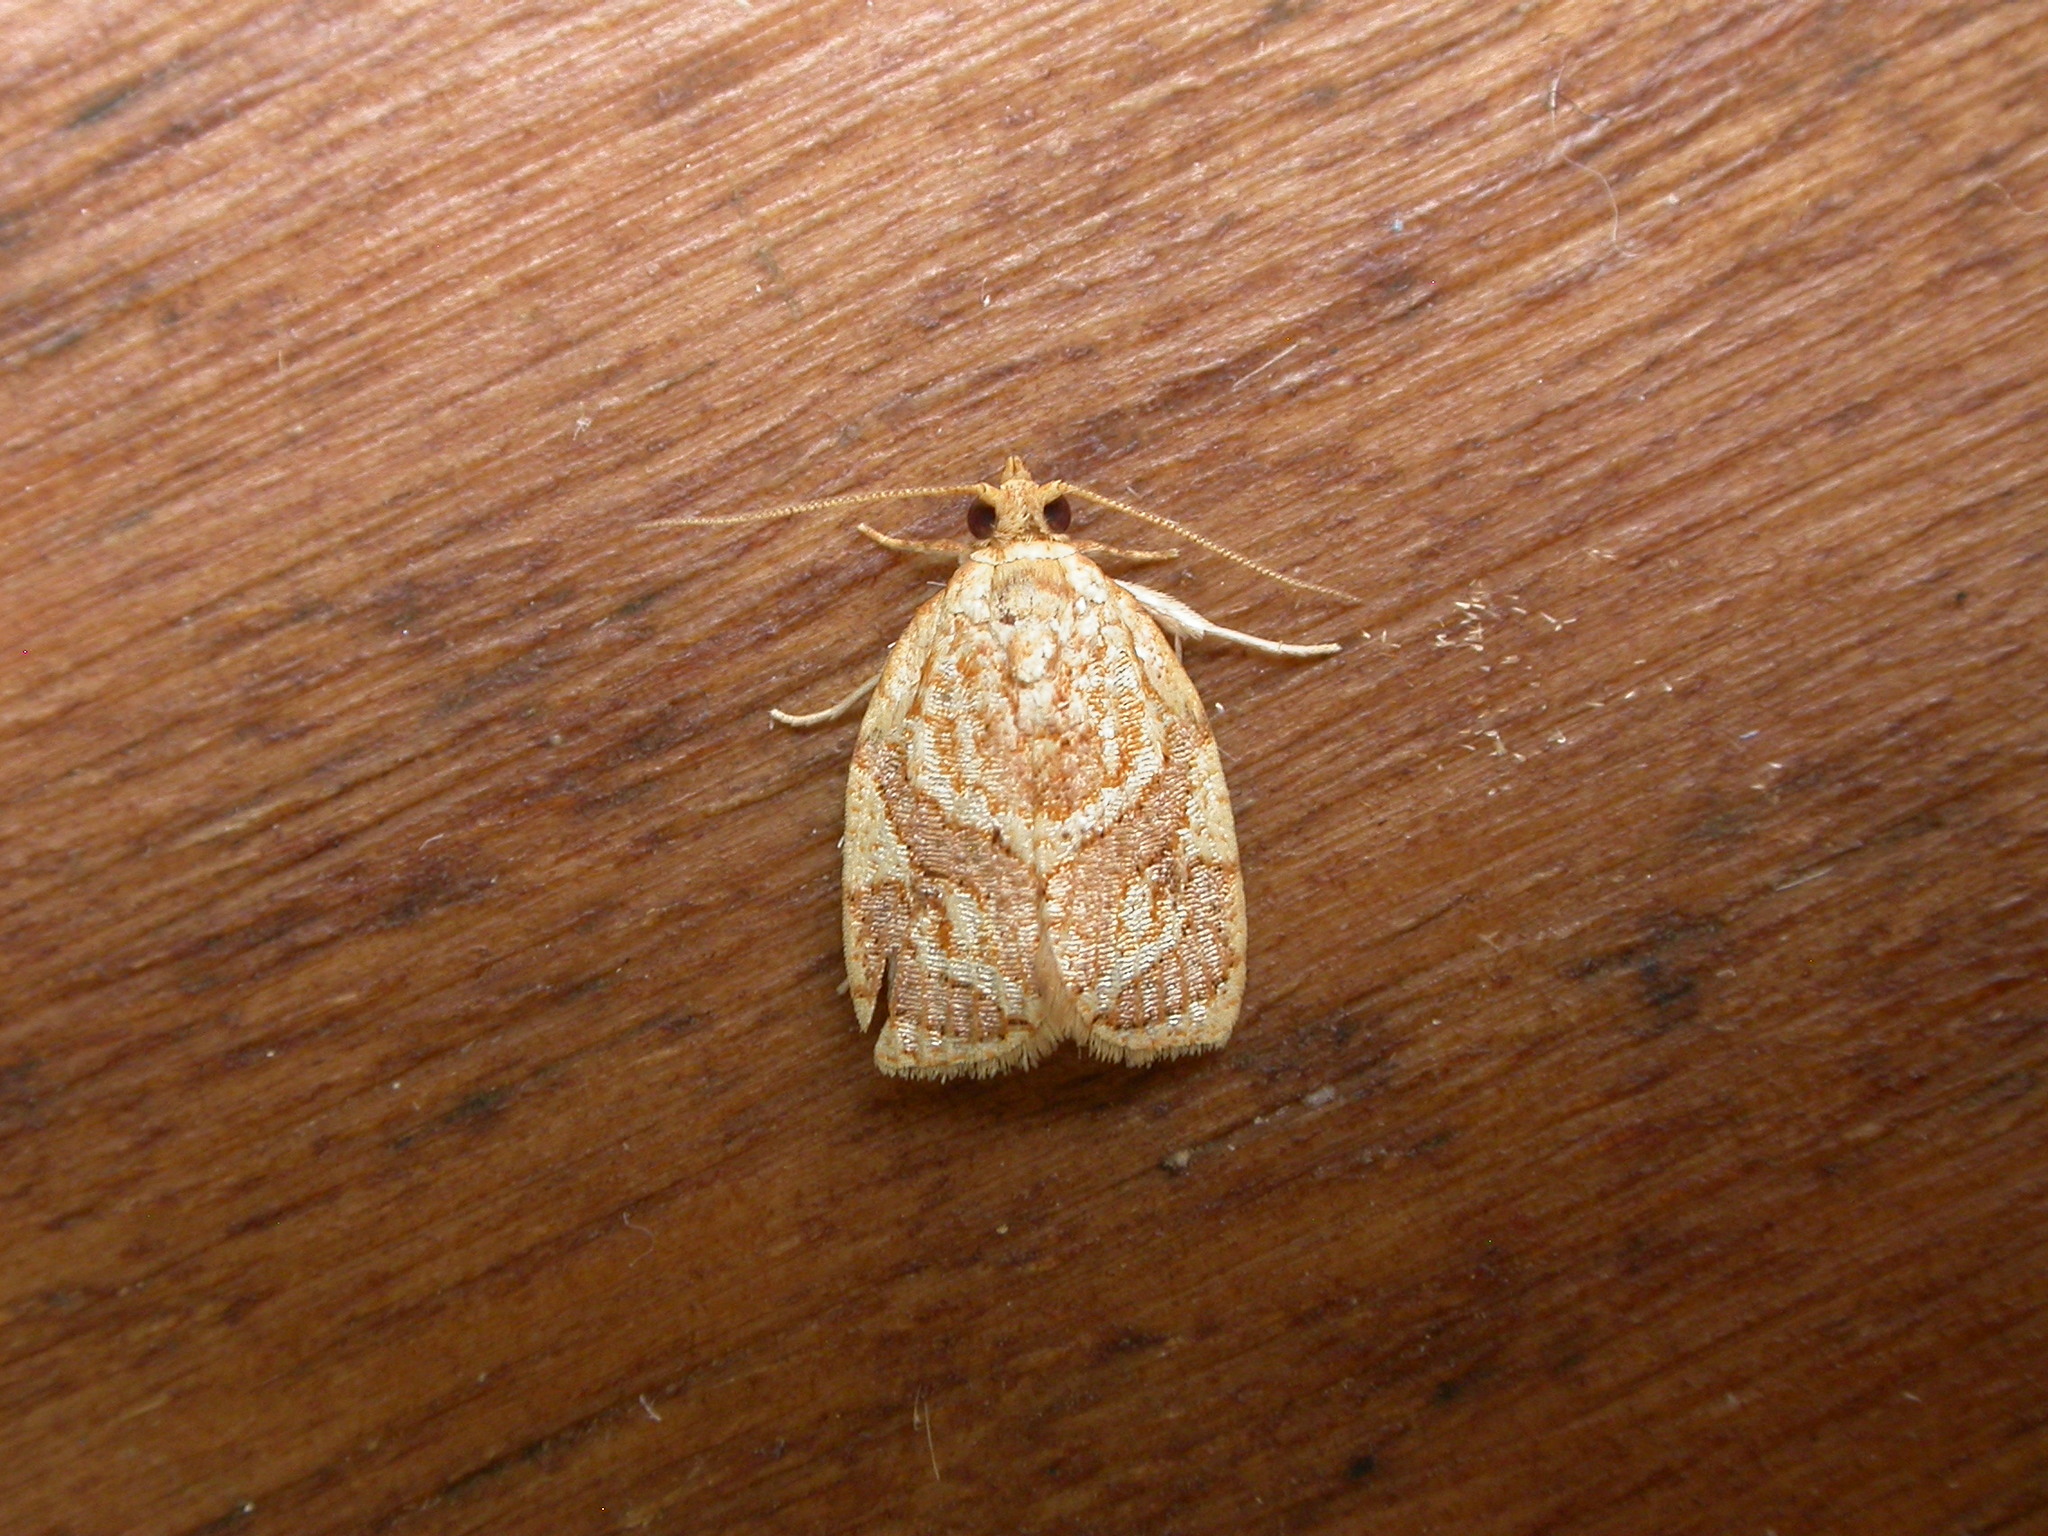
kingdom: Animalia
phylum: Arthropoda
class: Insecta
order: Lepidoptera
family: Tortricidae
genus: Adoxophyes
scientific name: Adoxophyes templana
